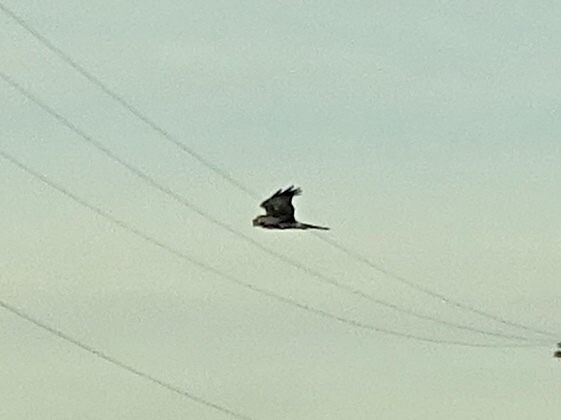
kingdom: Animalia
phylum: Chordata
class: Aves
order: Accipitriformes
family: Accipitridae
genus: Circus
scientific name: Circus cyaneus
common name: Hen harrier
